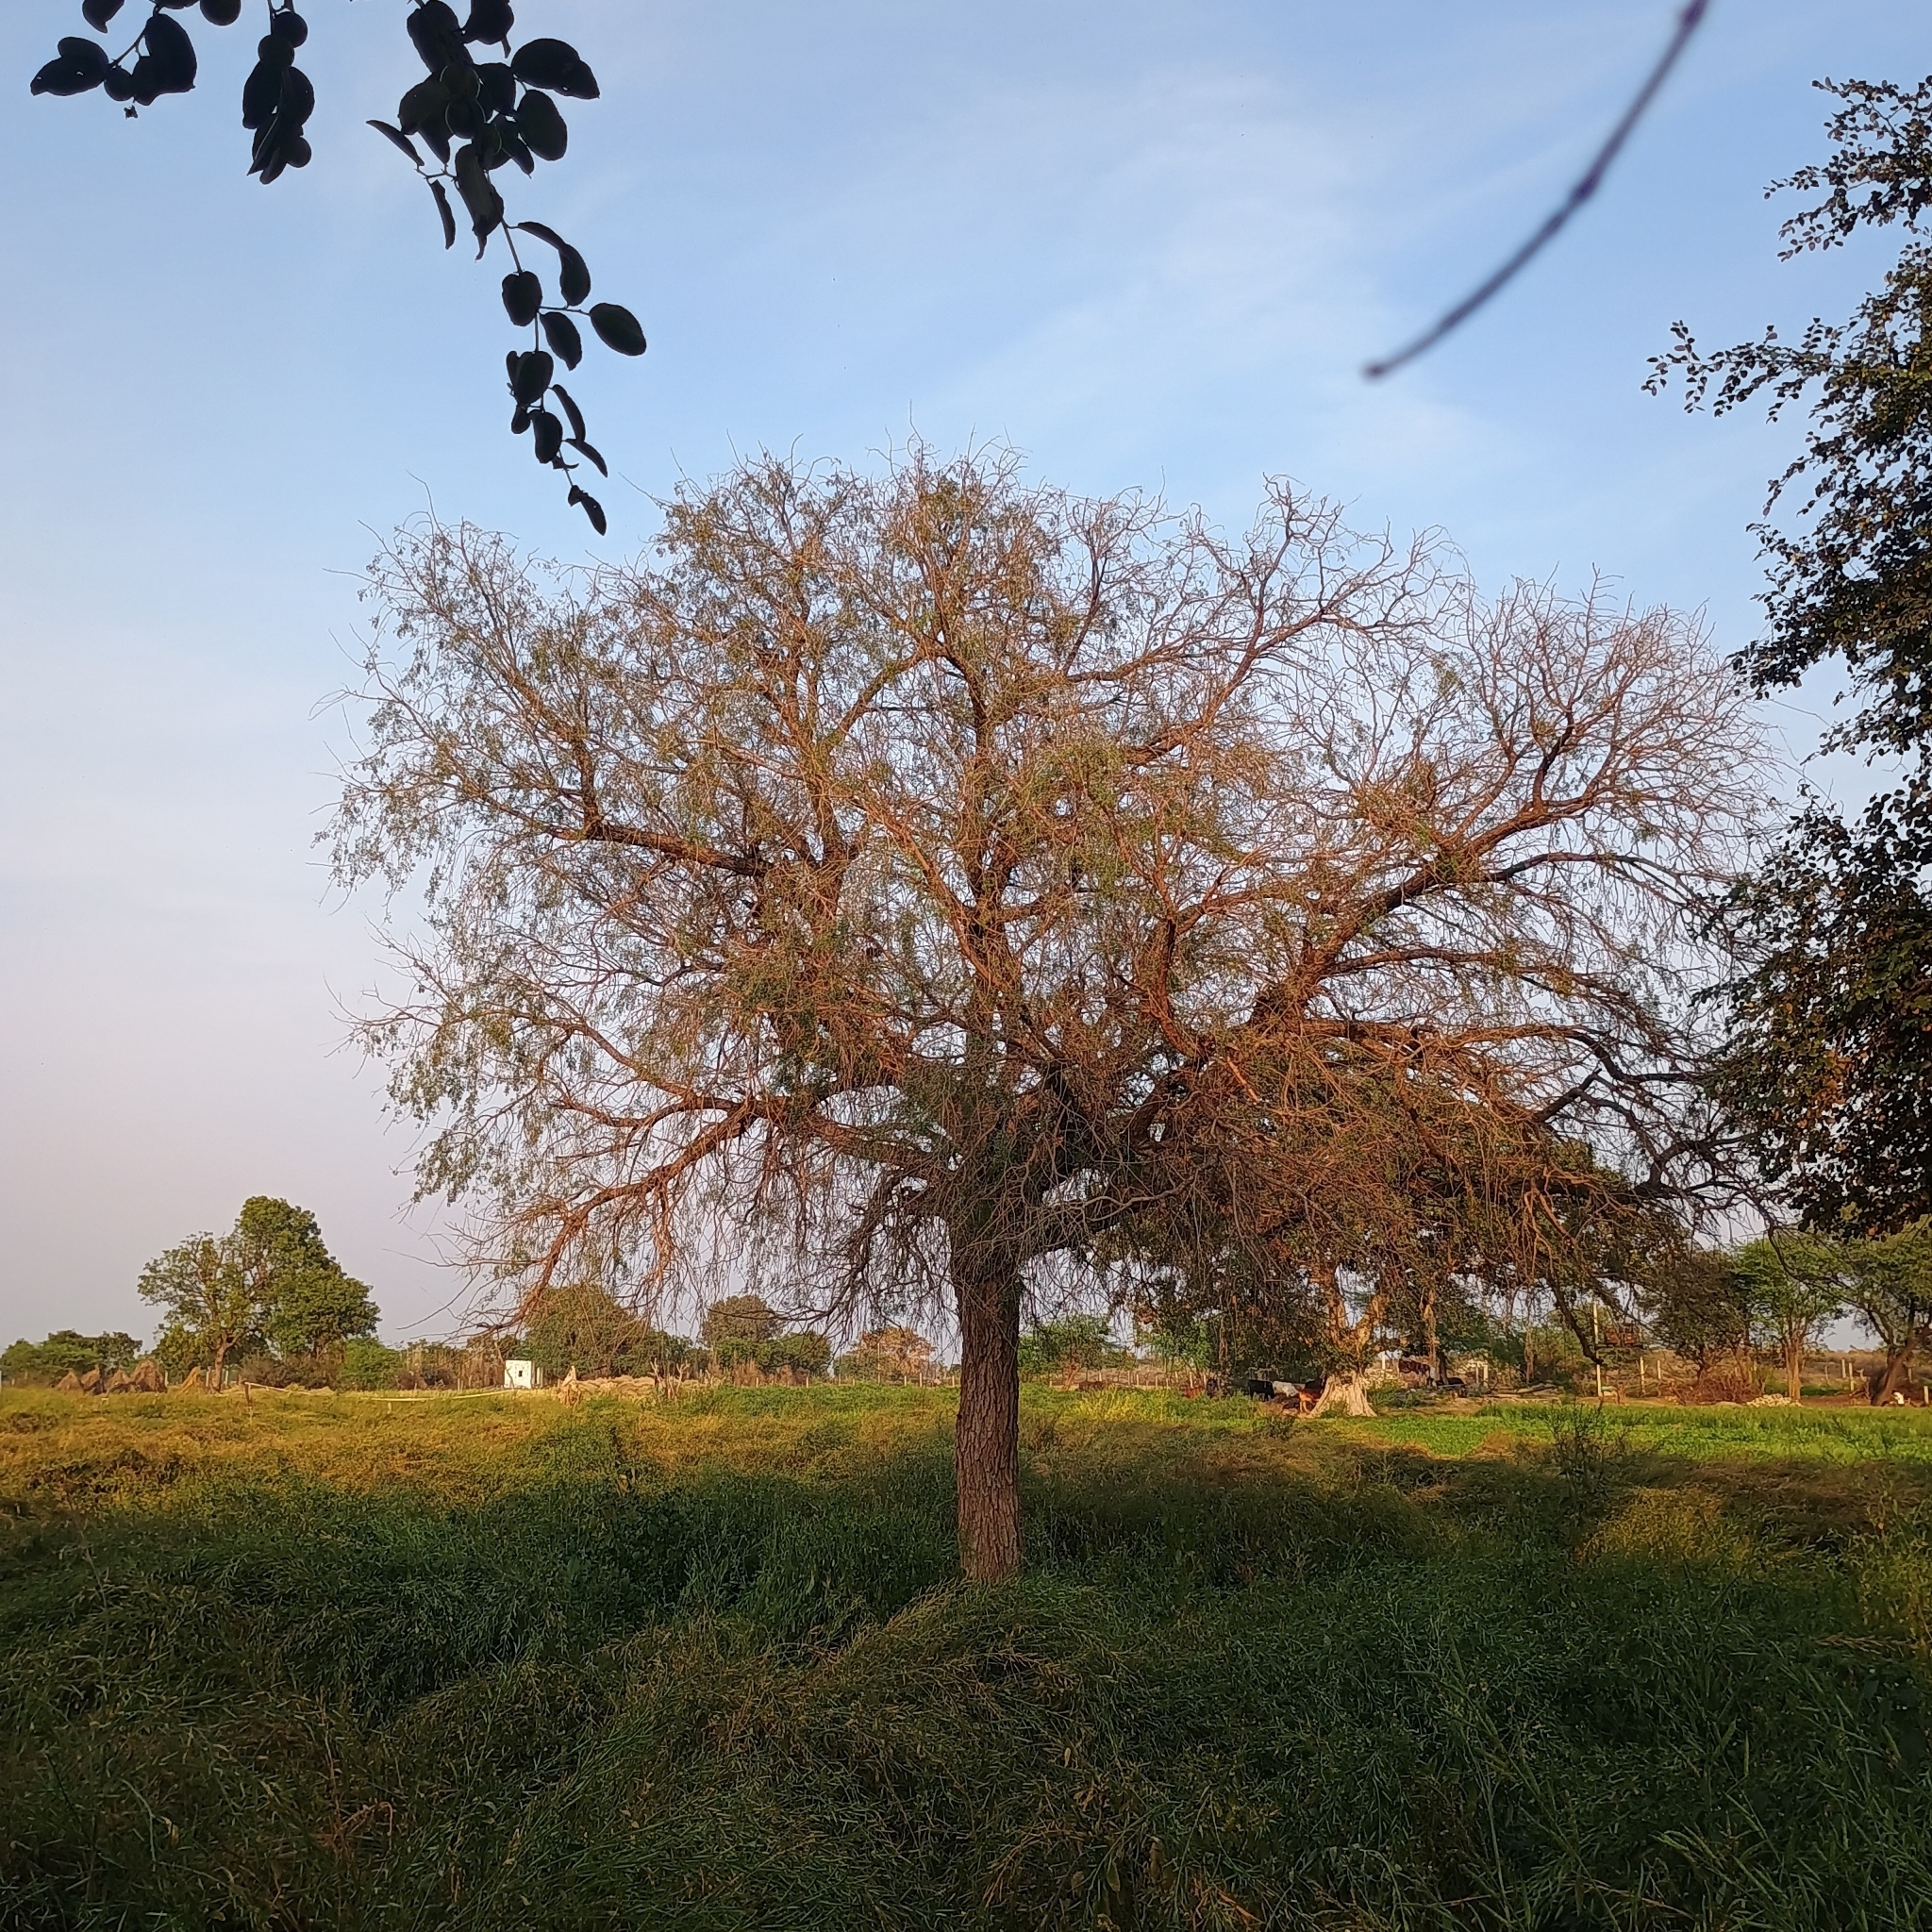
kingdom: Plantae
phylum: Tracheophyta
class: Magnoliopsida
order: Fabales
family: Fabaceae
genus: Prosopis
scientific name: Prosopis cineraria
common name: Jandi
